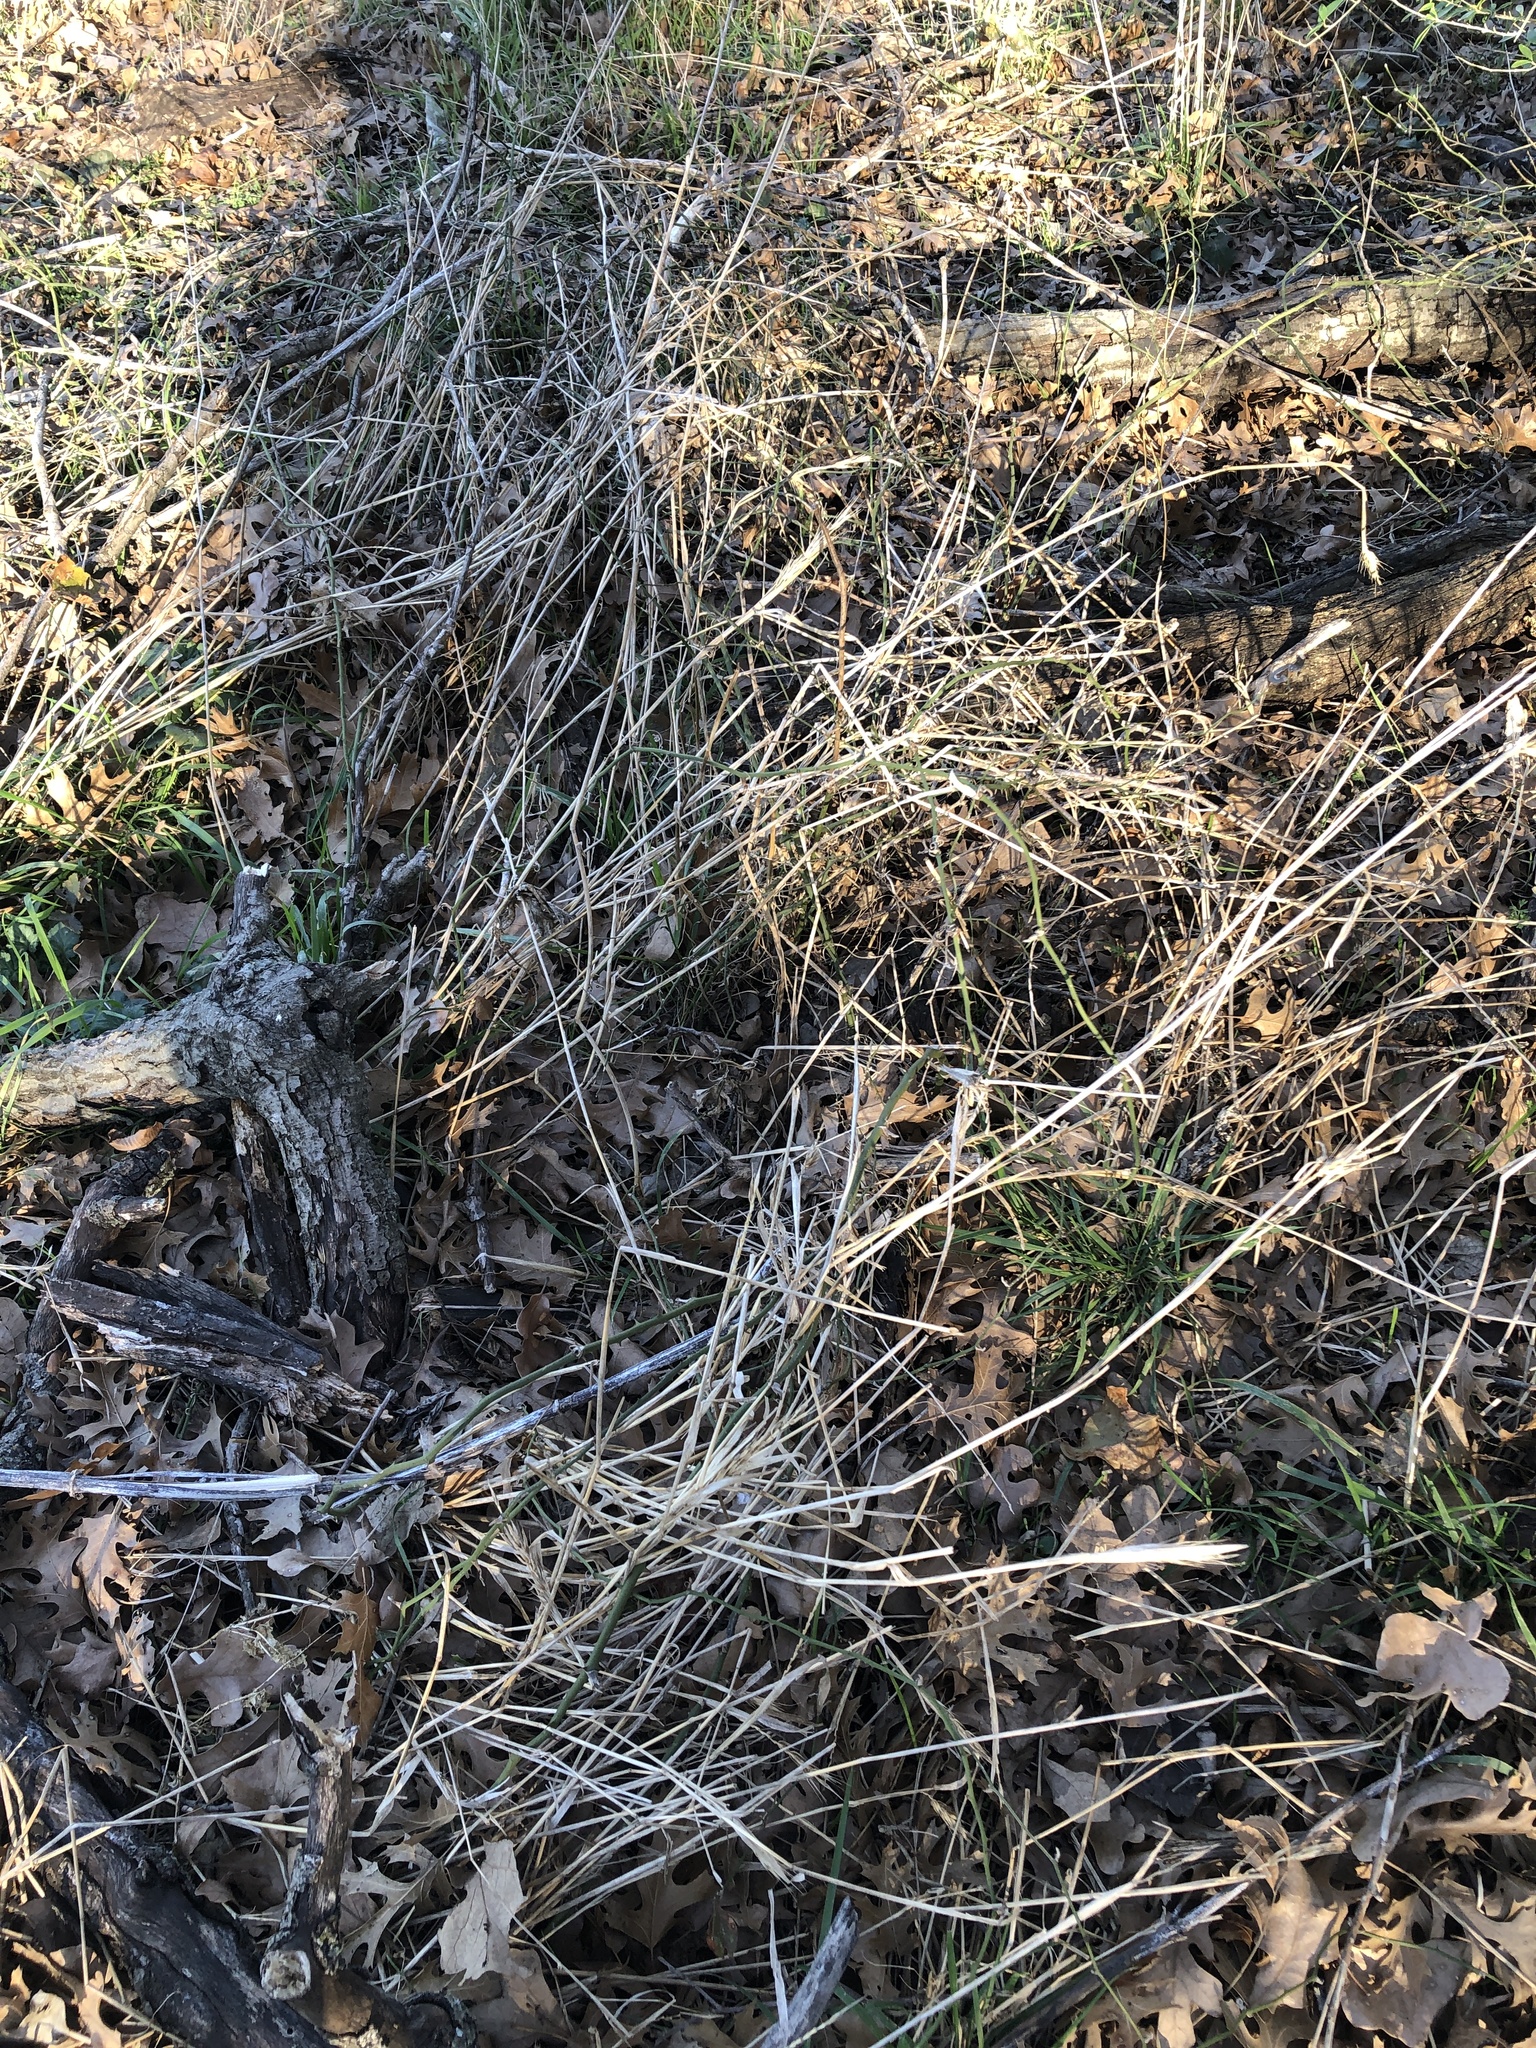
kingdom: Plantae
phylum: Tracheophyta
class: Liliopsida
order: Poales
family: Poaceae
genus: Elymus
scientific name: Elymus virginicus
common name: Common eastern wildrye
